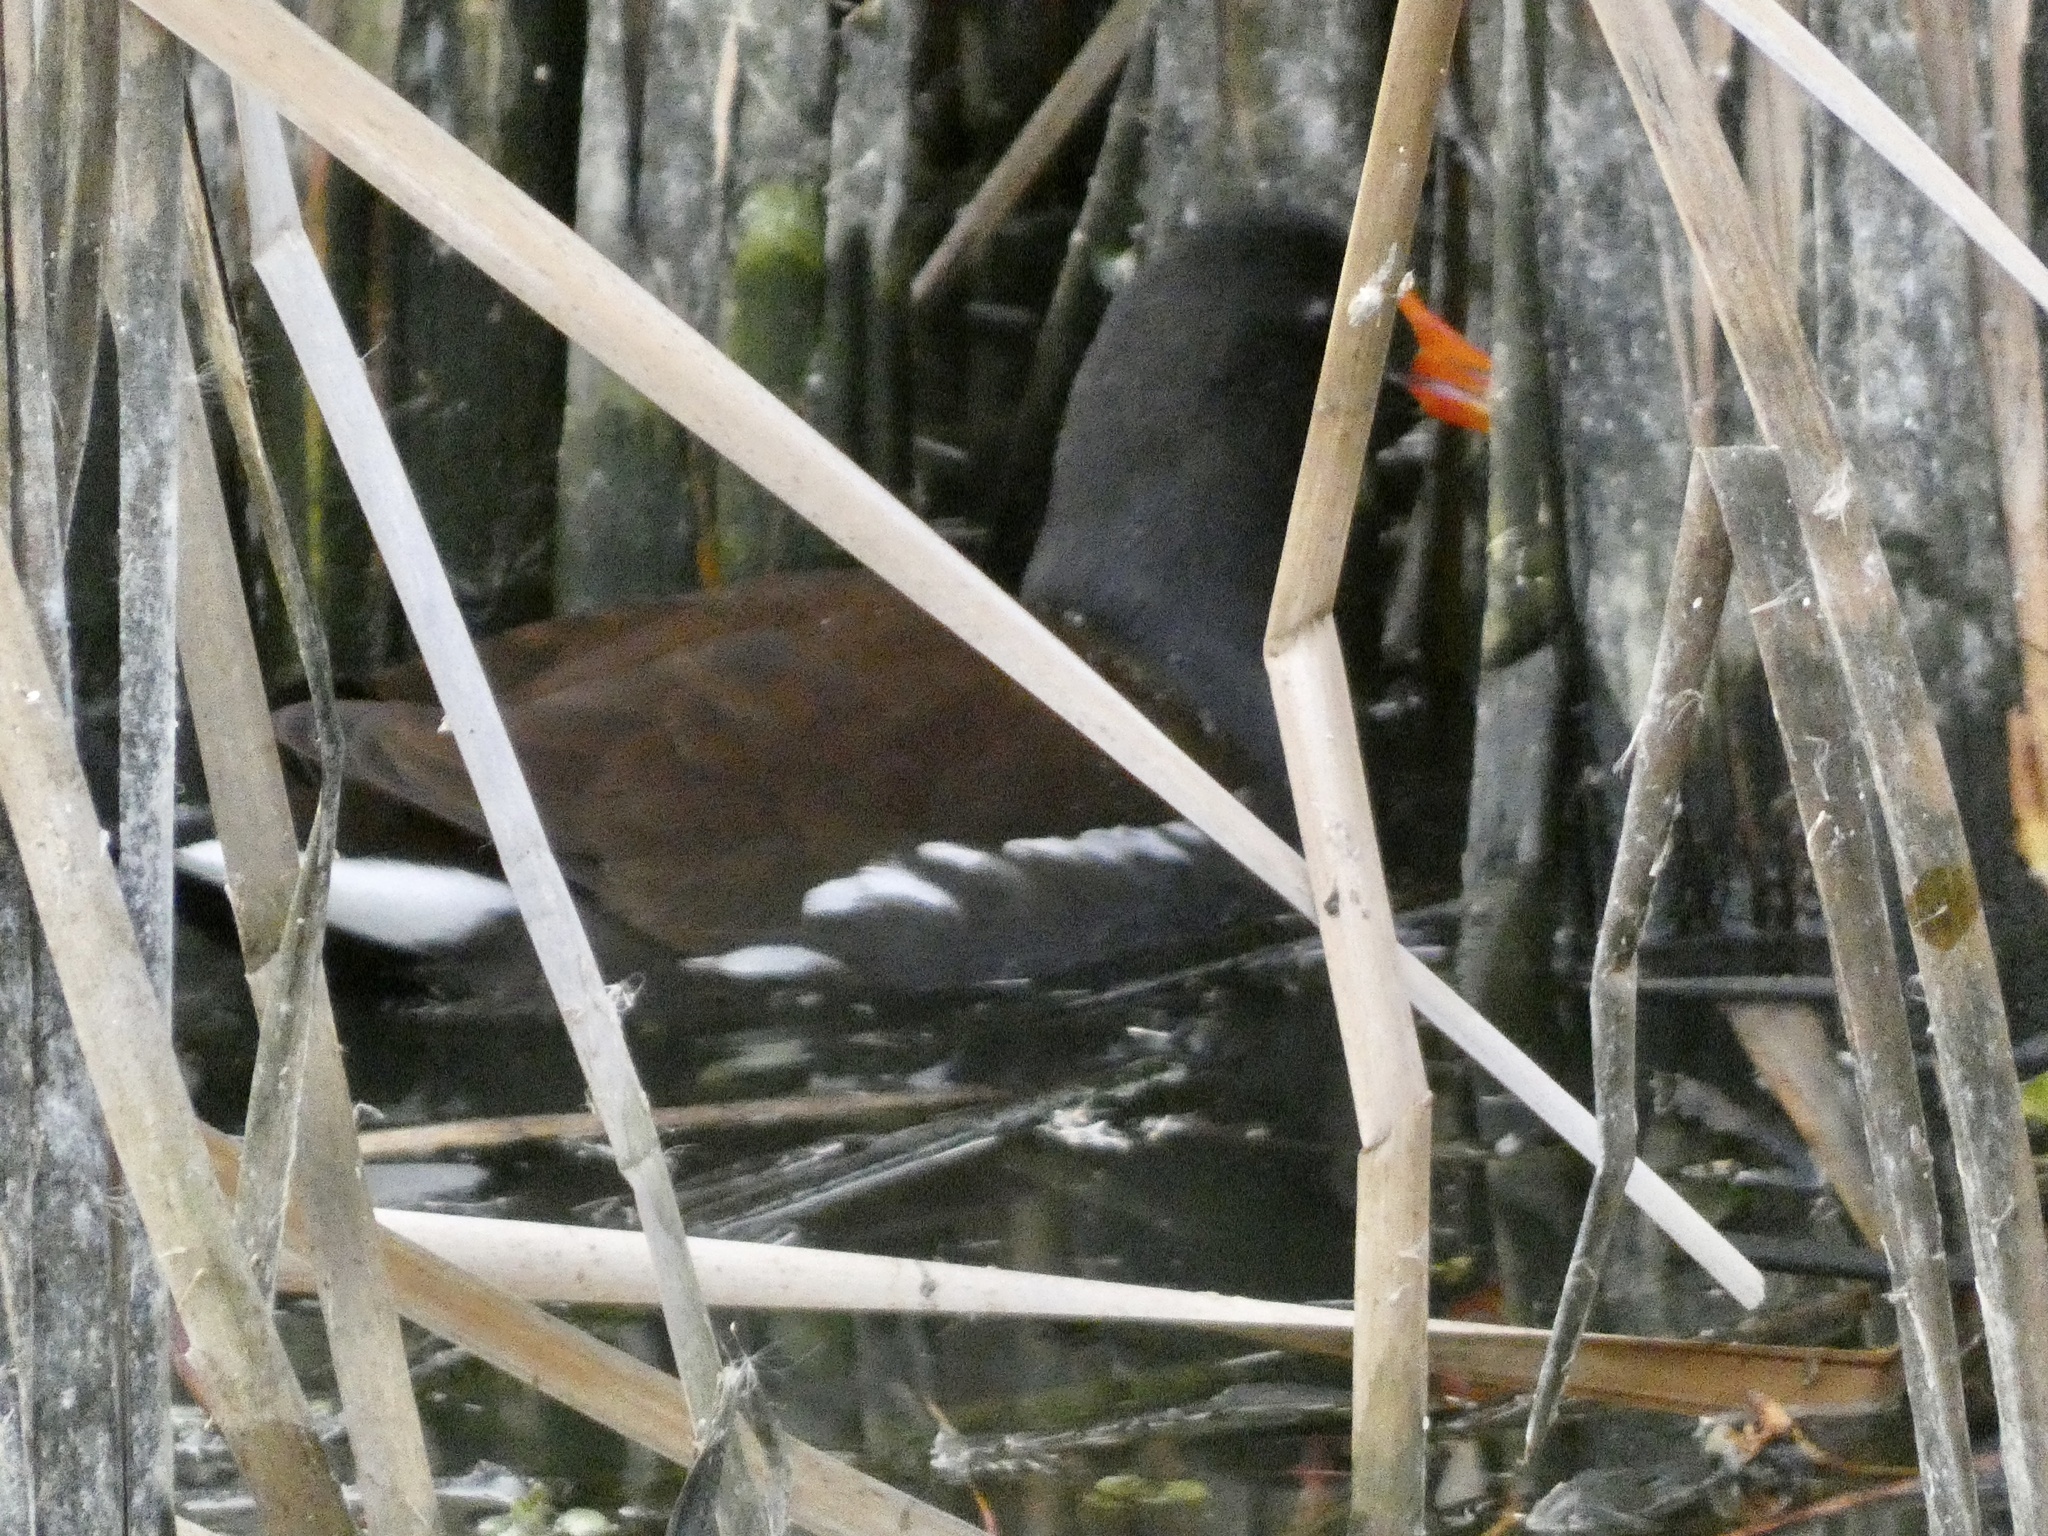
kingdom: Animalia
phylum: Chordata
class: Aves
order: Gruiformes
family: Rallidae
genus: Gallinula
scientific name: Gallinula chloropus
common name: Common moorhen
